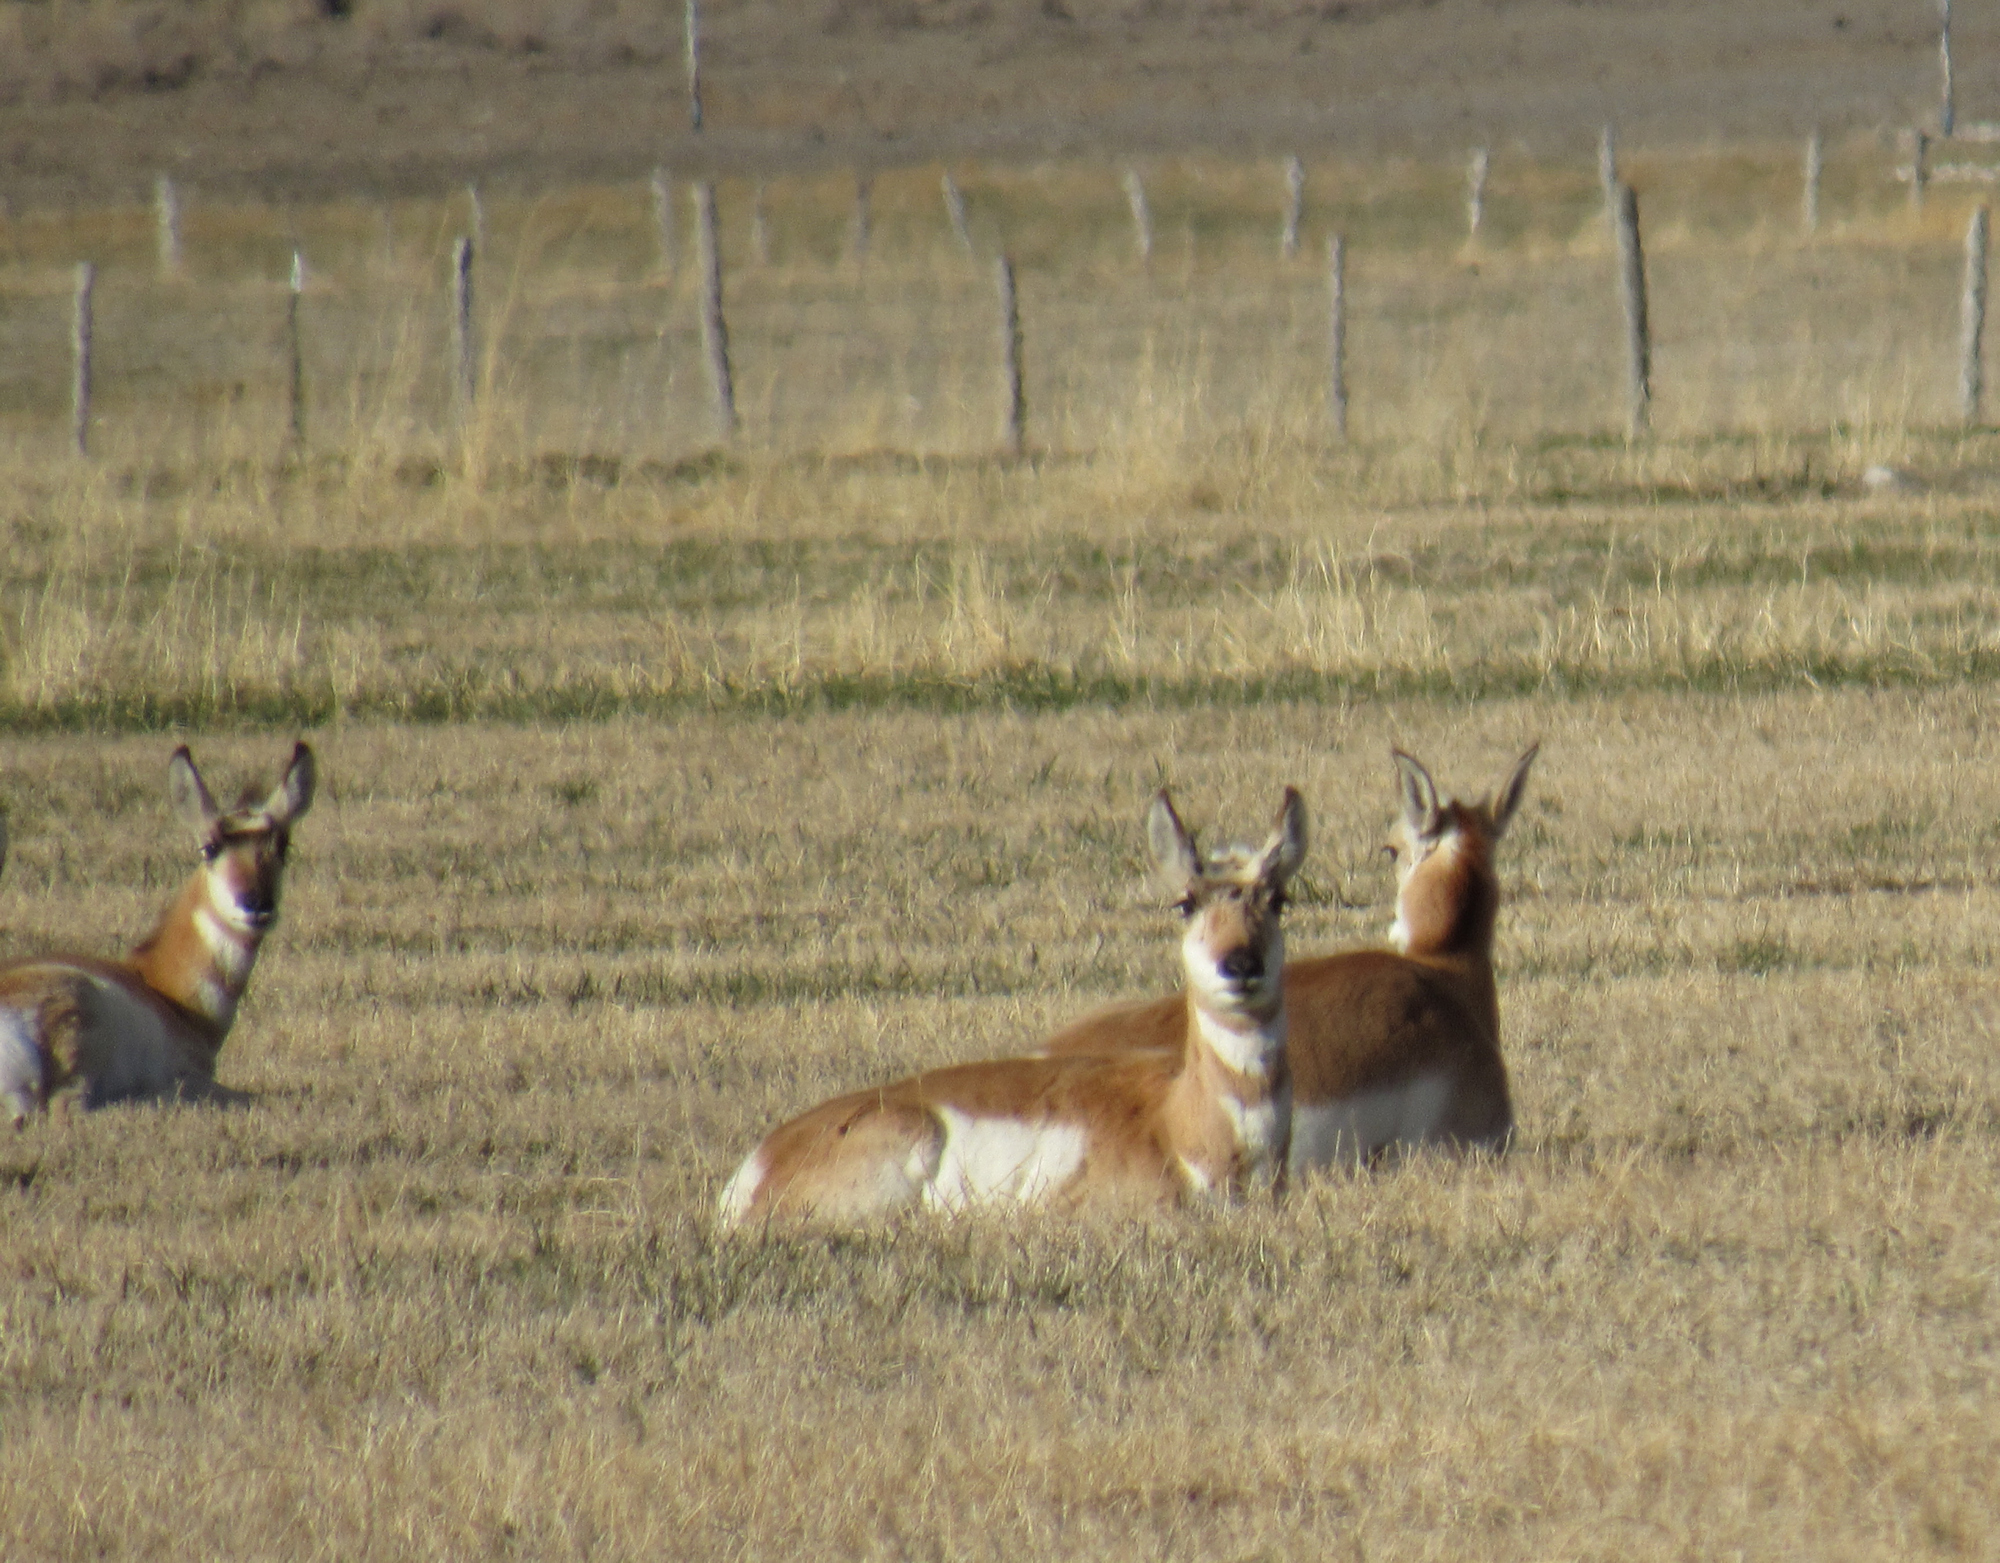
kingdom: Animalia
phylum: Chordata
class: Mammalia
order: Artiodactyla
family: Antilocapridae
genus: Antilocapra
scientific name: Antilocapra americana
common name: Pronghorn
